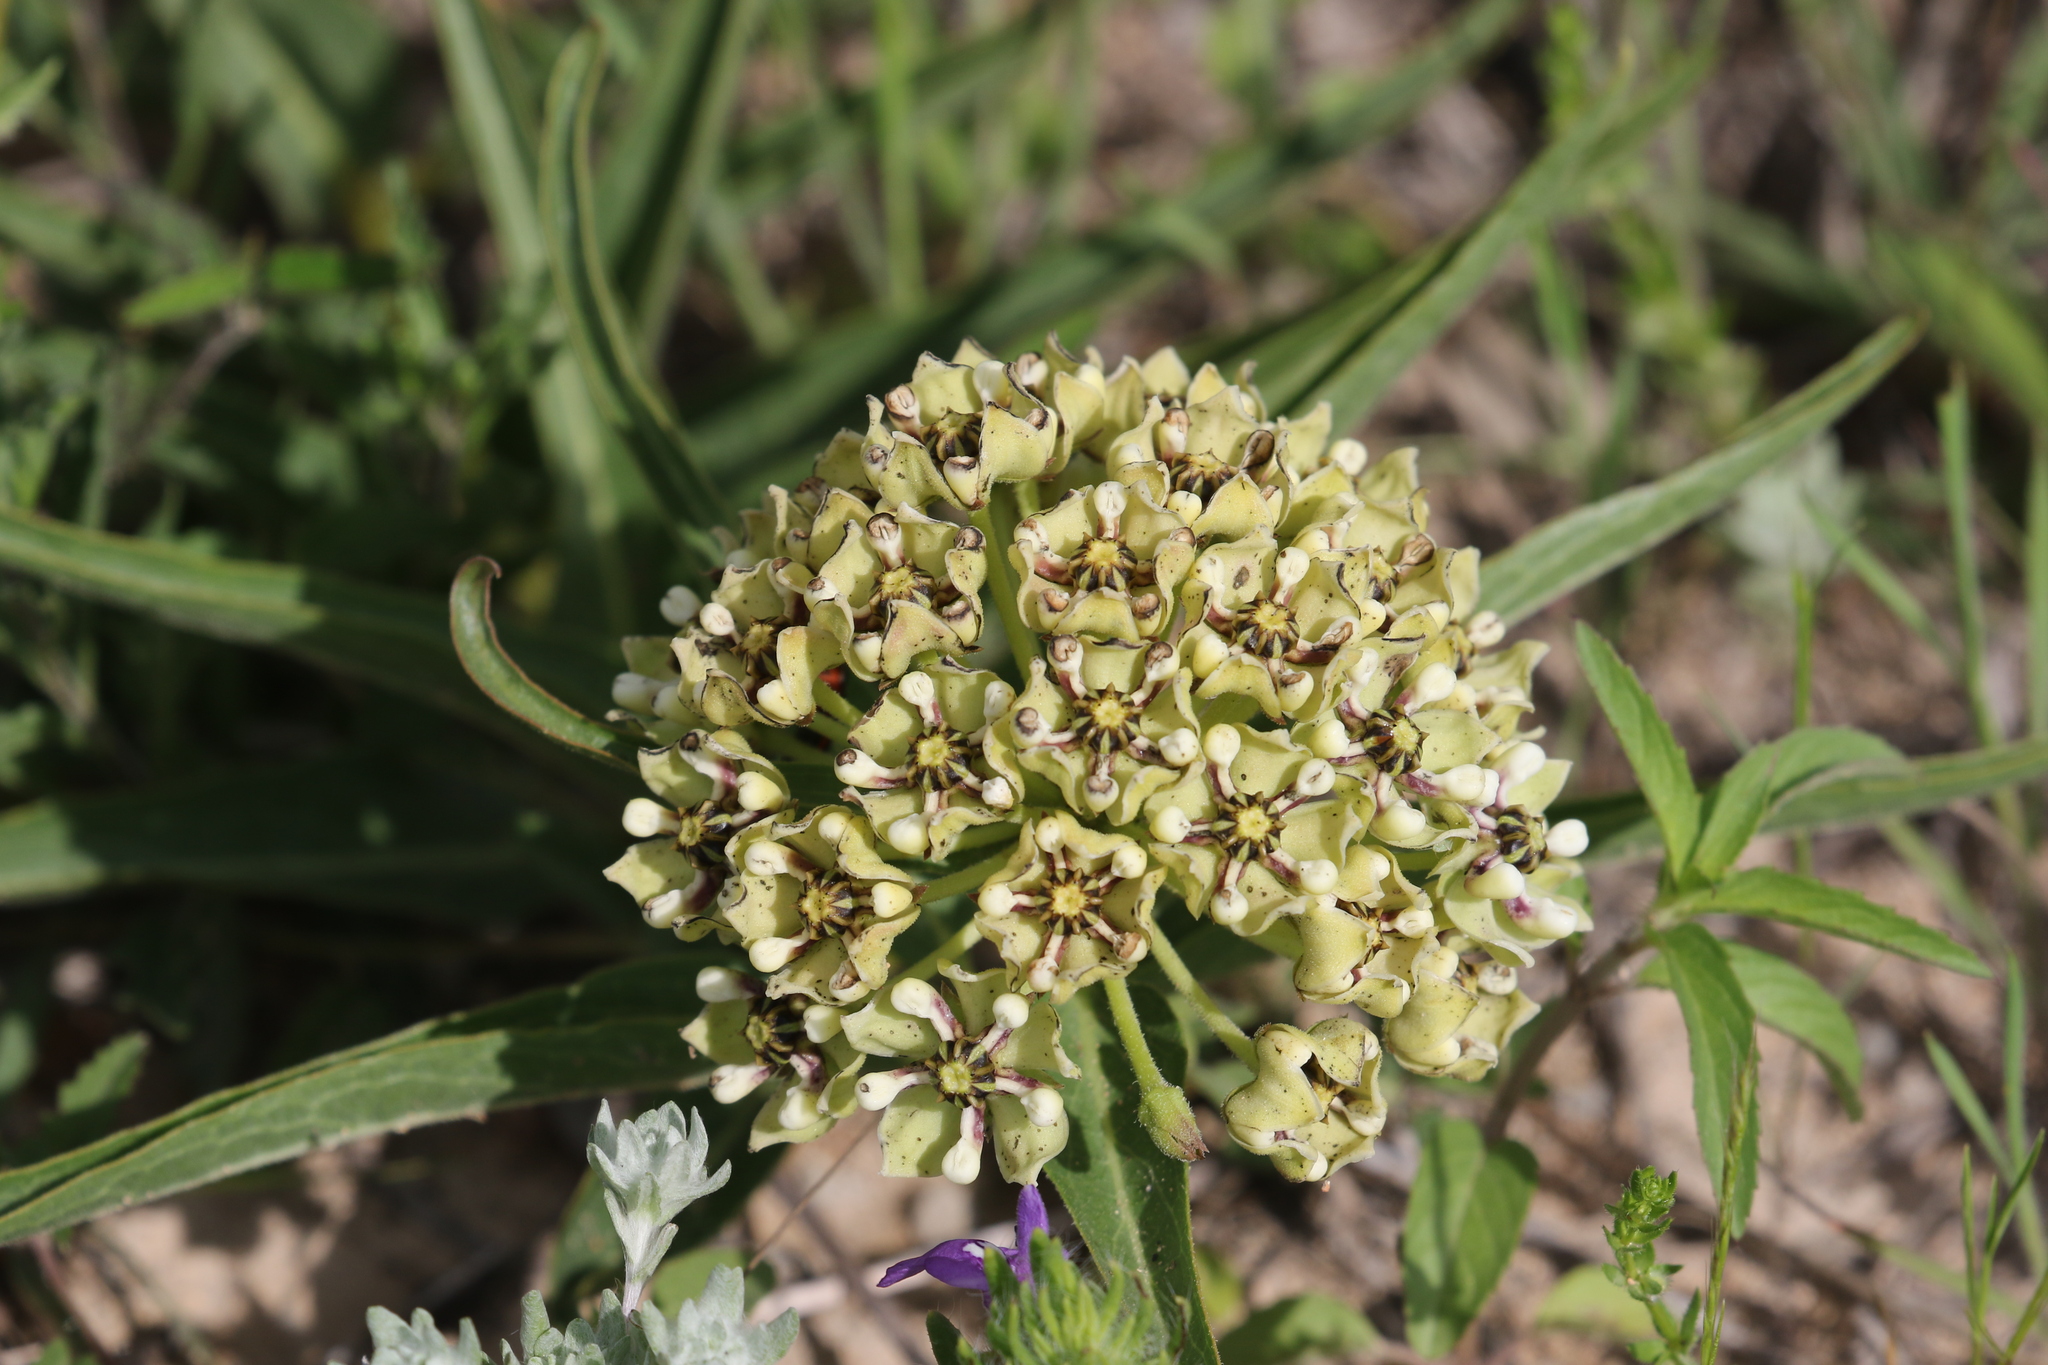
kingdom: Plantae
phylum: Tracheophyta
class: Magnoliopsida
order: Gentianales
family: Apocynaceae
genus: Asclepias
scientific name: Asclepias asperula
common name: Antelope horns
